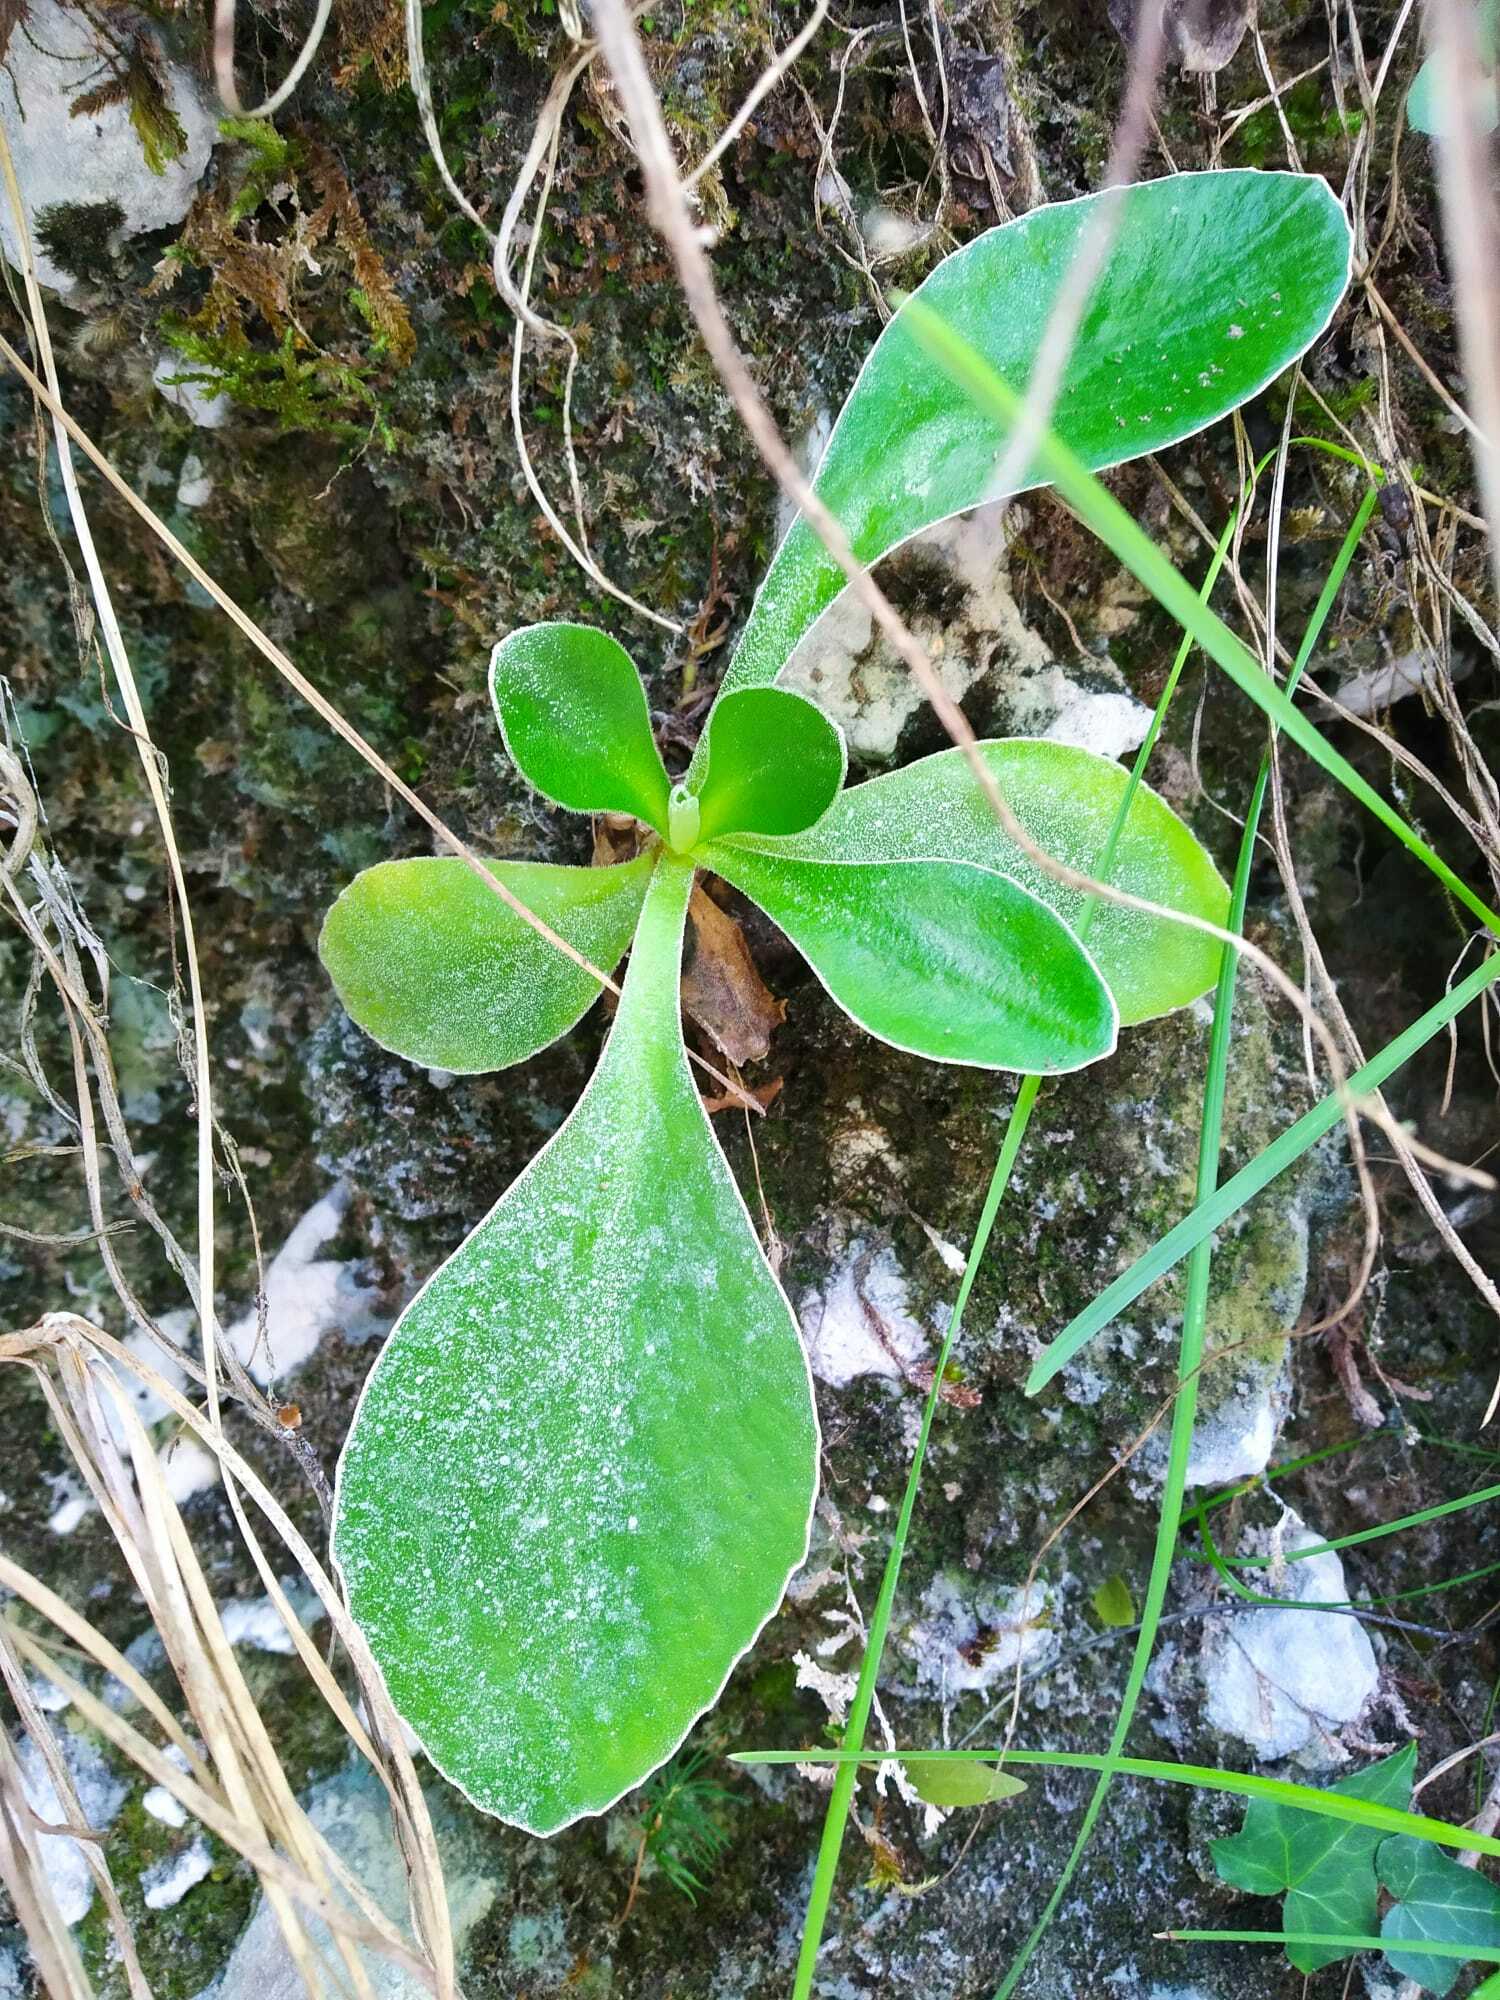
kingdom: Plantae
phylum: Tracheophyta
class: Magnoliopsida
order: Ericales
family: Primulaceae
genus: Primula
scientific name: Primula auricula
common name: Auricula
